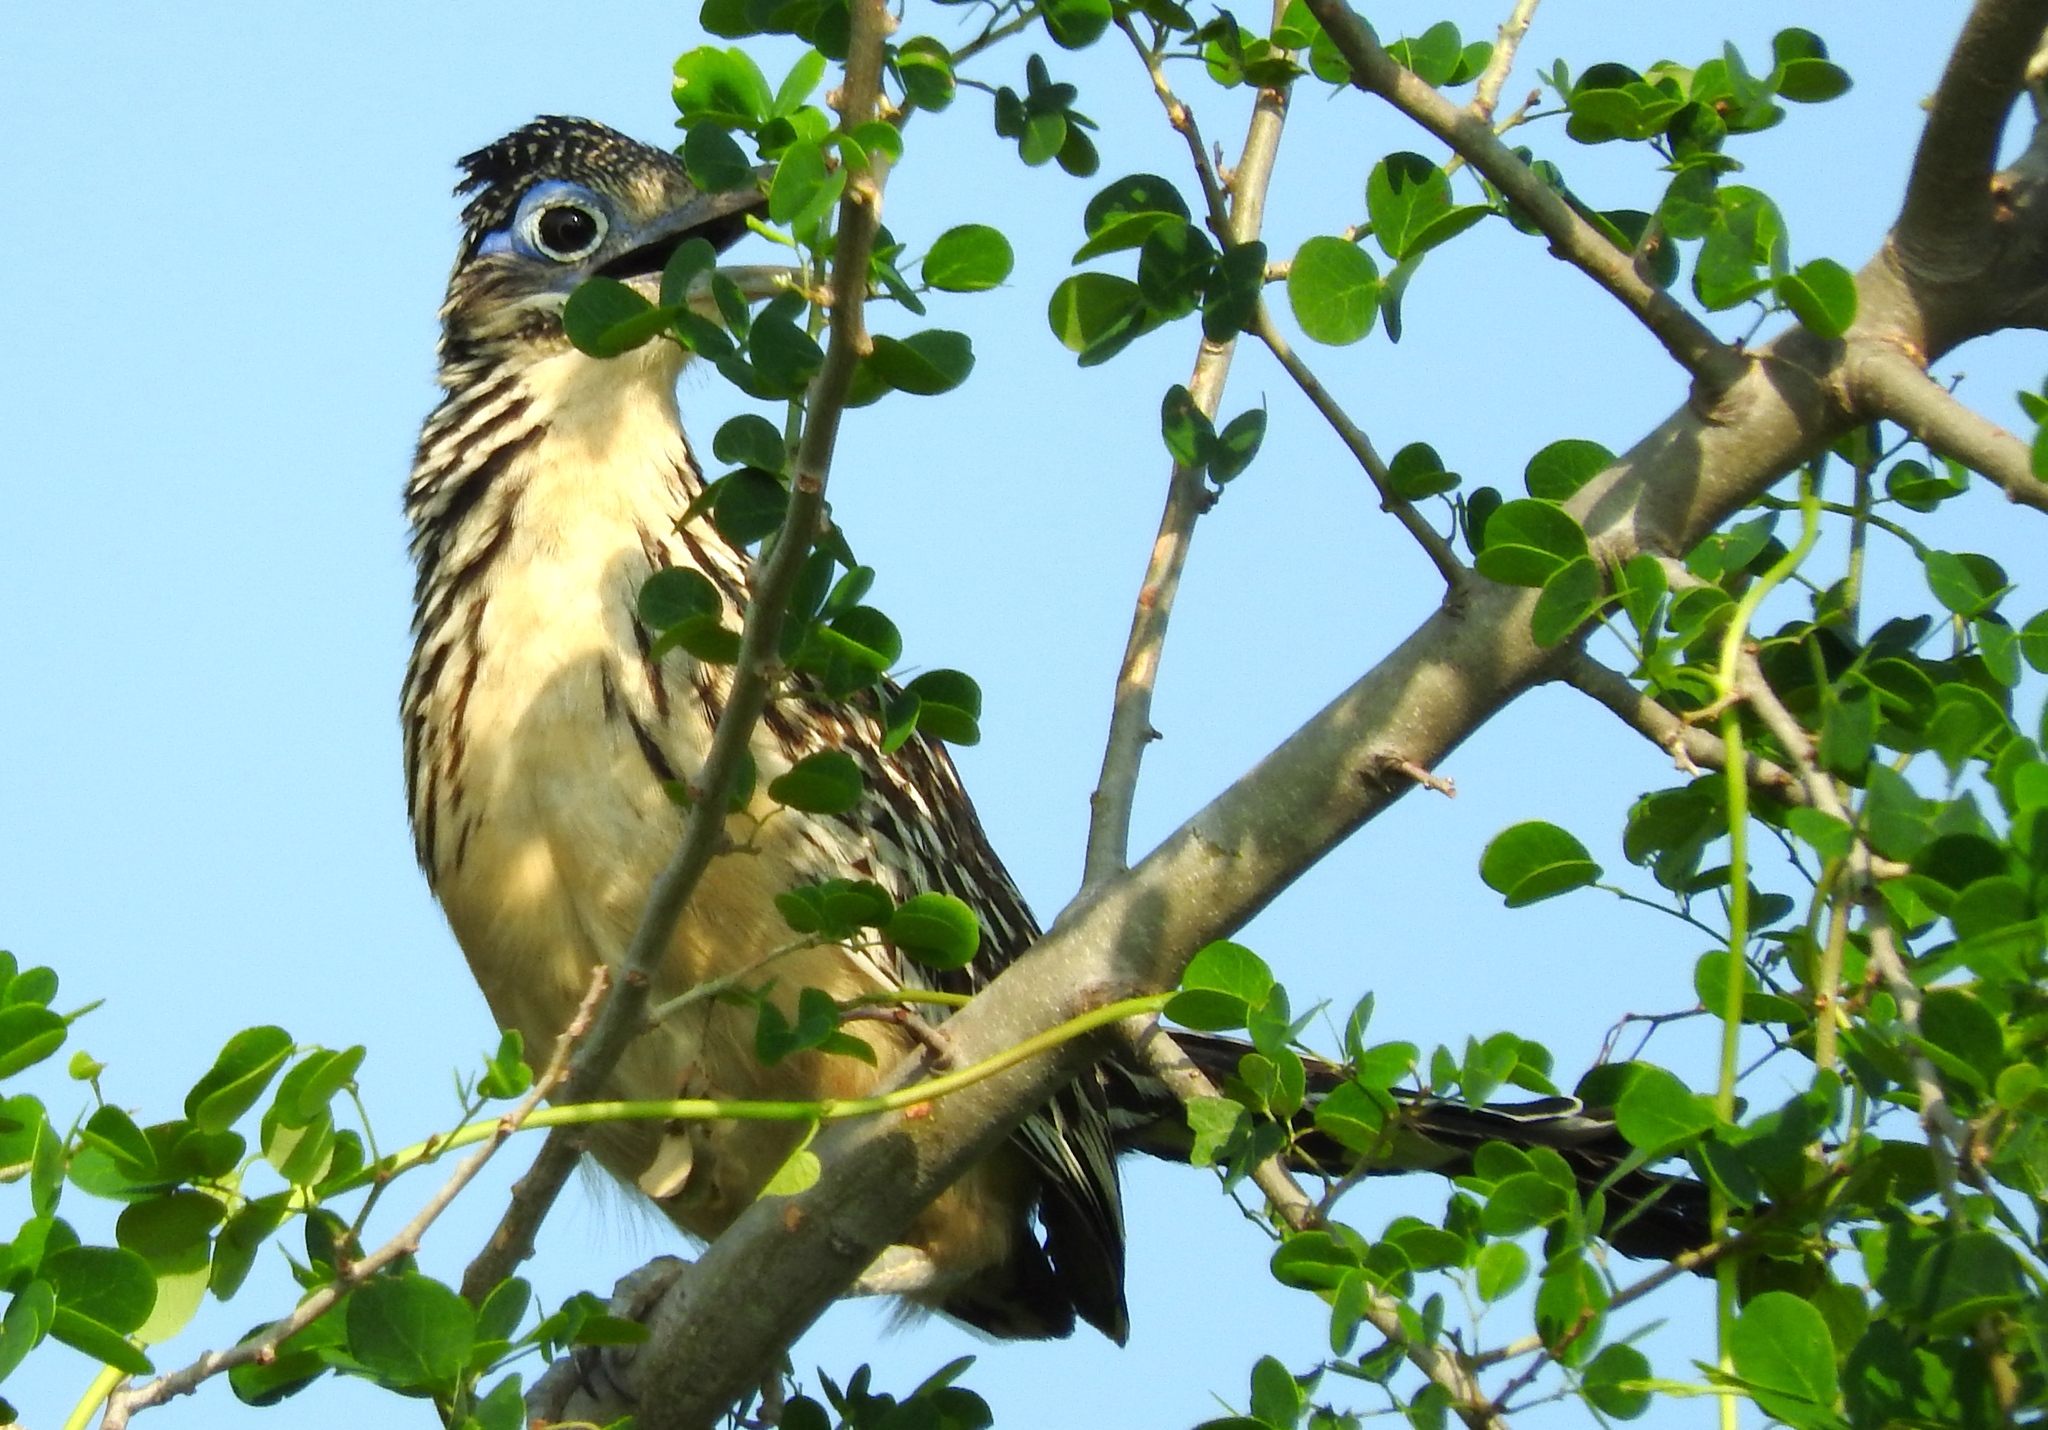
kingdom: Animalia
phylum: Chordata
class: Aves
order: Cuculiformes
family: Cuculidae
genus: Geococcyx
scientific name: Geococcyx velox
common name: Lesser roadrunner
